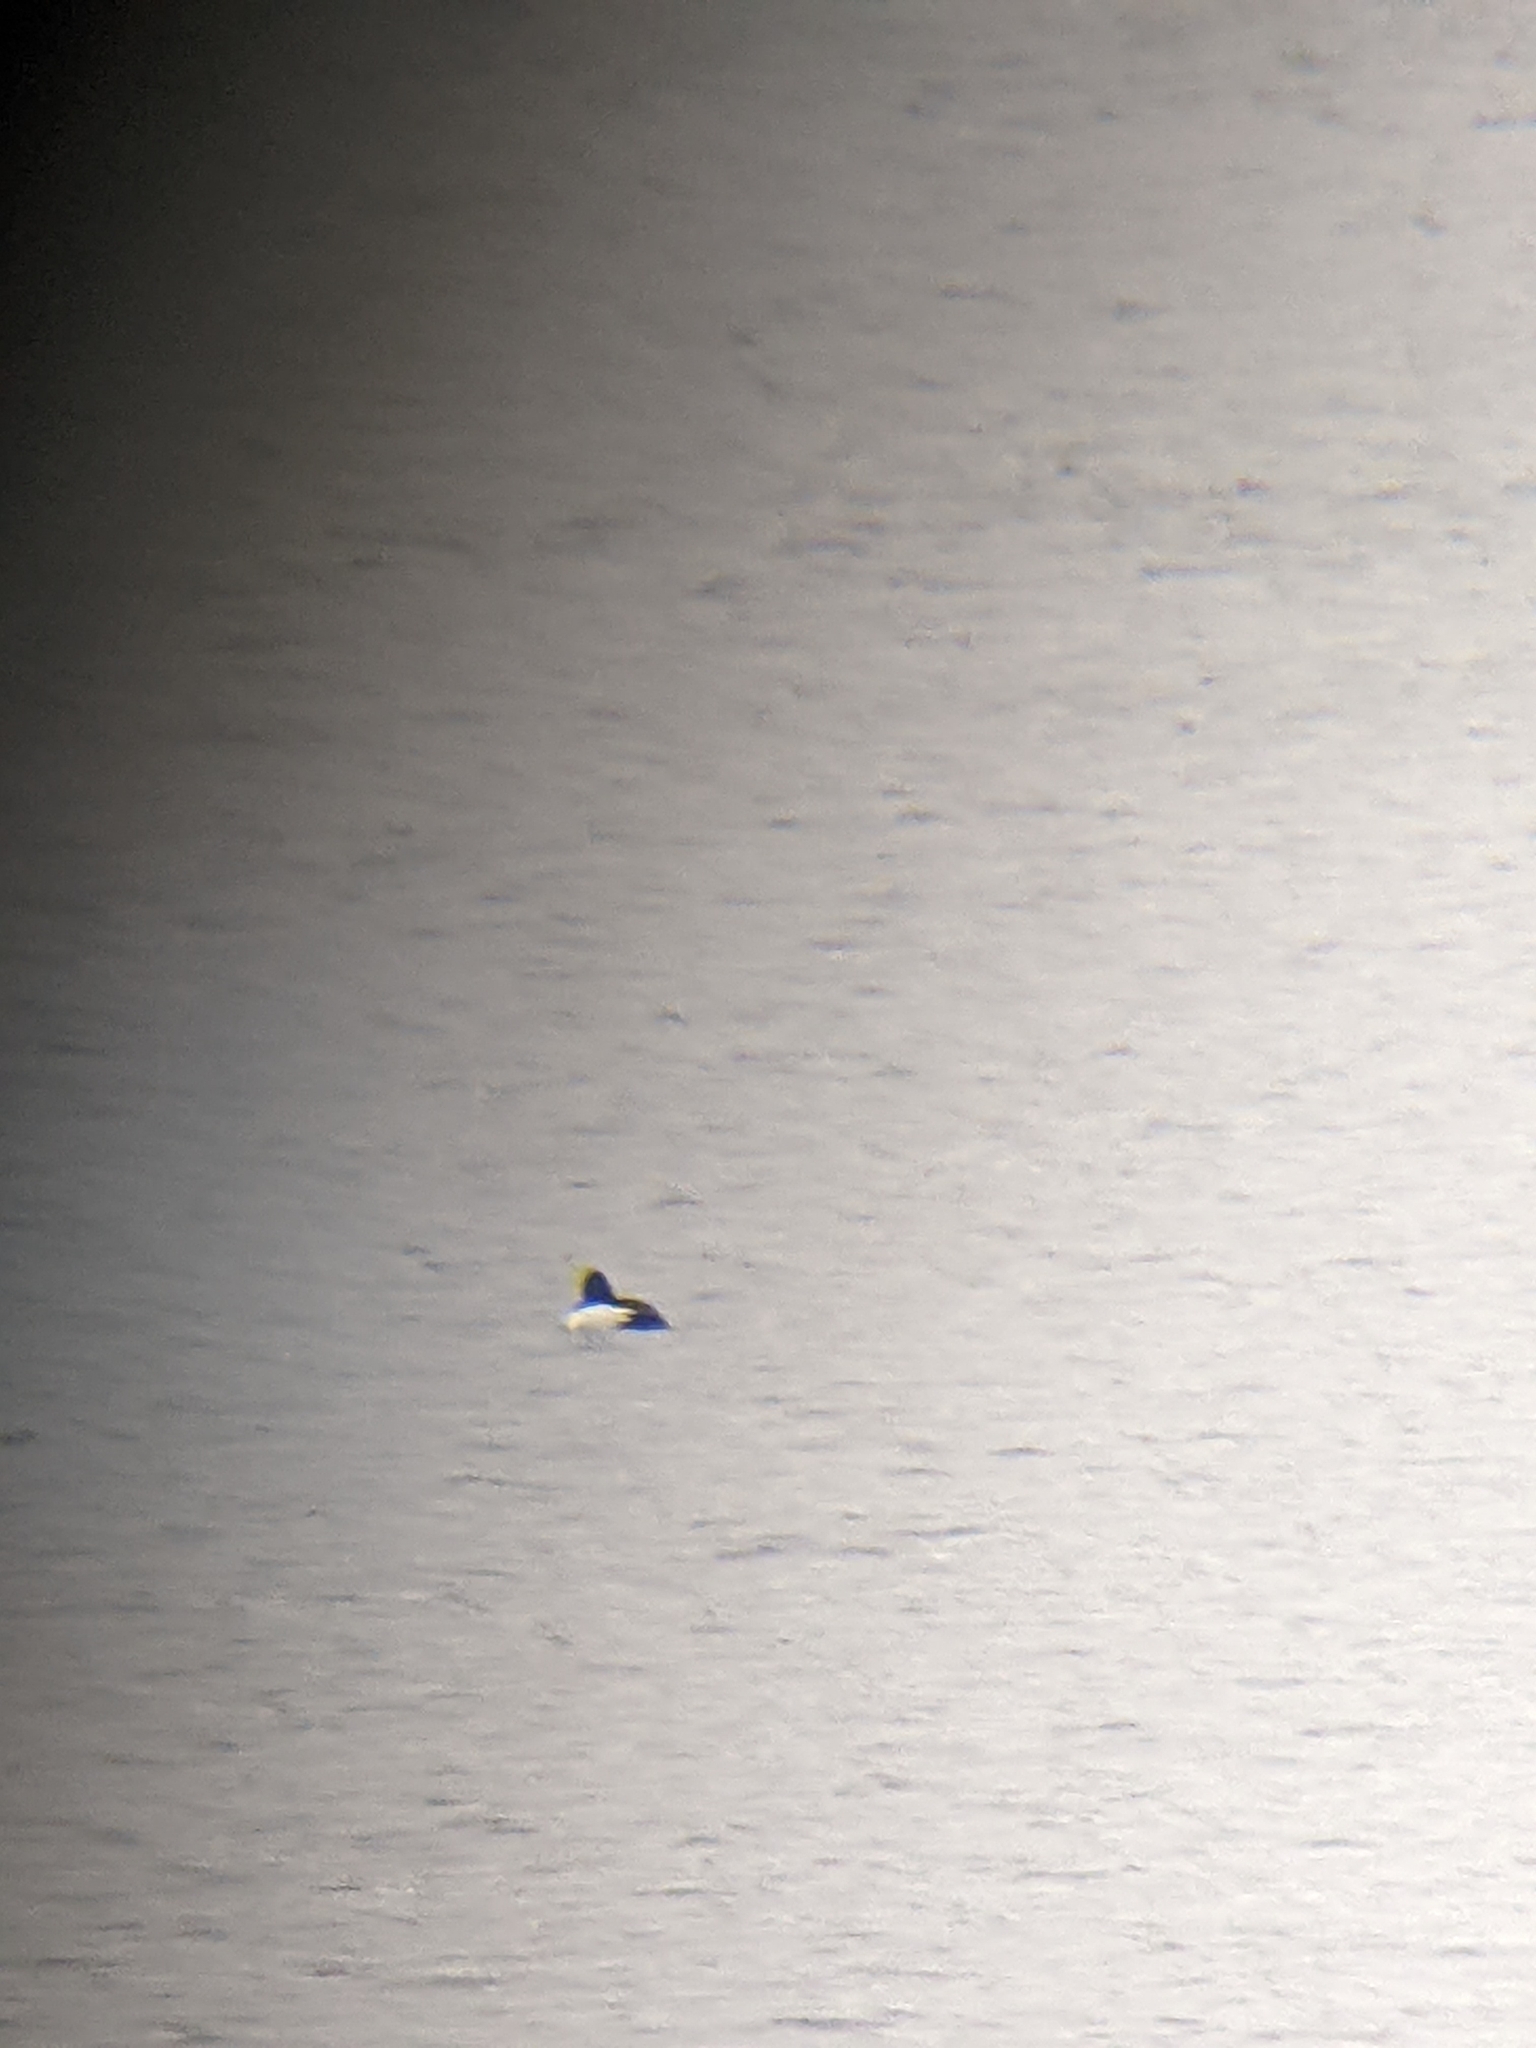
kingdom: Animalia
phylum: Chordata
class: Aves
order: Anseriformes
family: Anatidae
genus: Bucephala
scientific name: Bucephala clangula
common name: Common goldeneye
